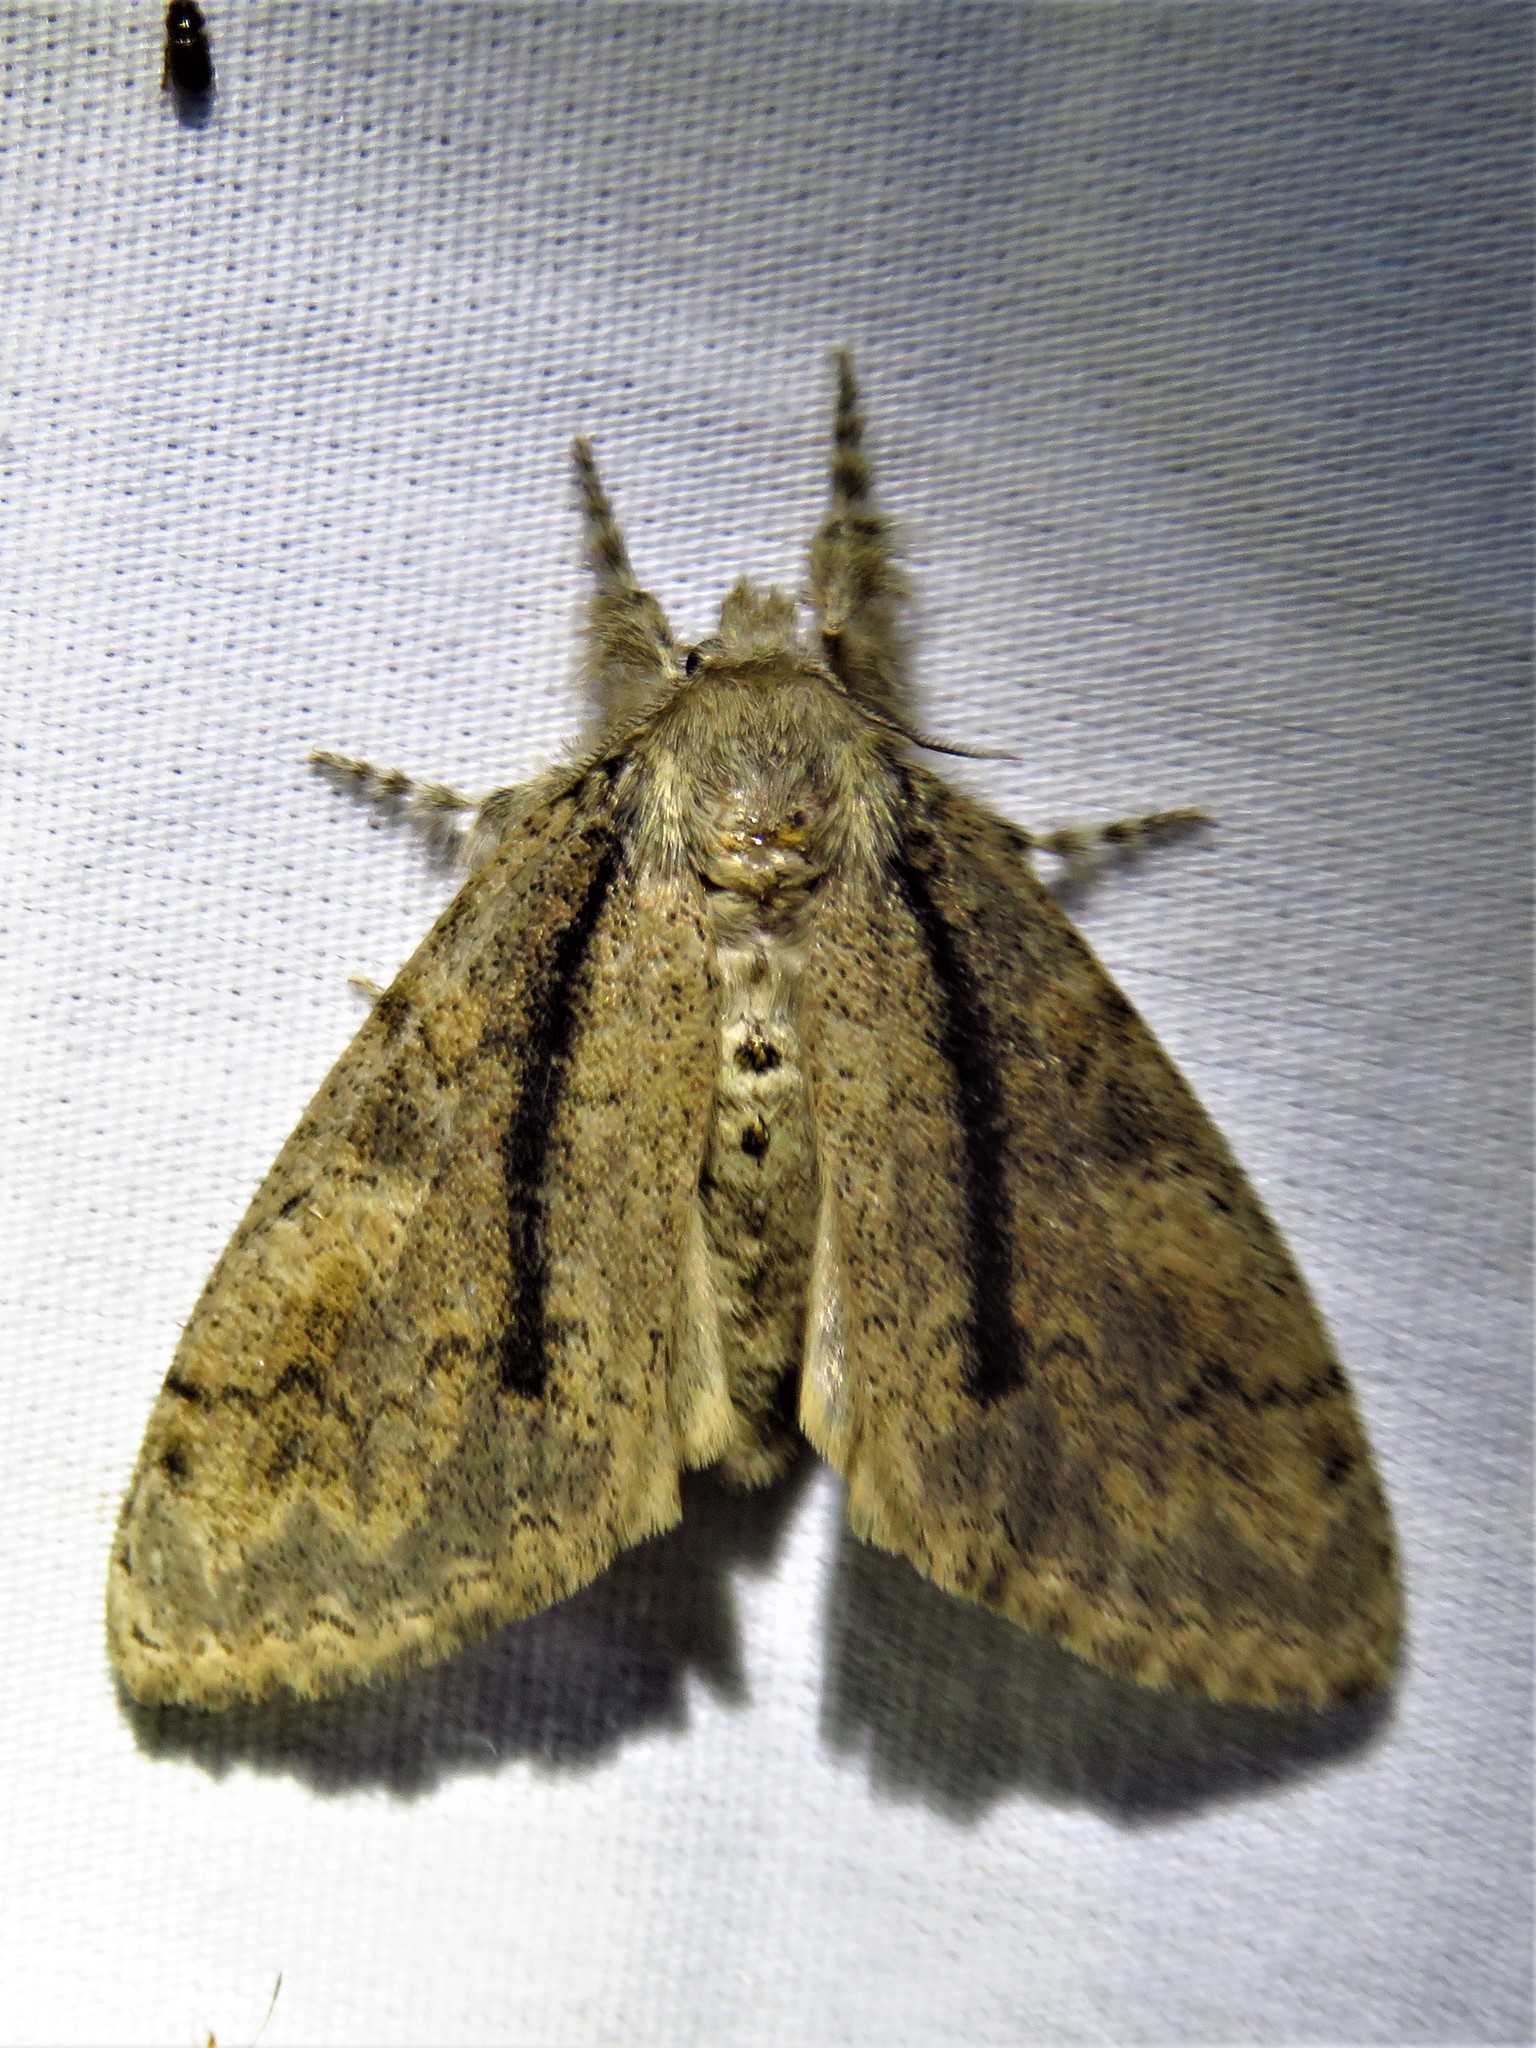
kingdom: Animalia
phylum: Arthropoda
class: Insecta
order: Lepidoptera
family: Erebidae
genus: Dasychira
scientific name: Dasychira tephra
